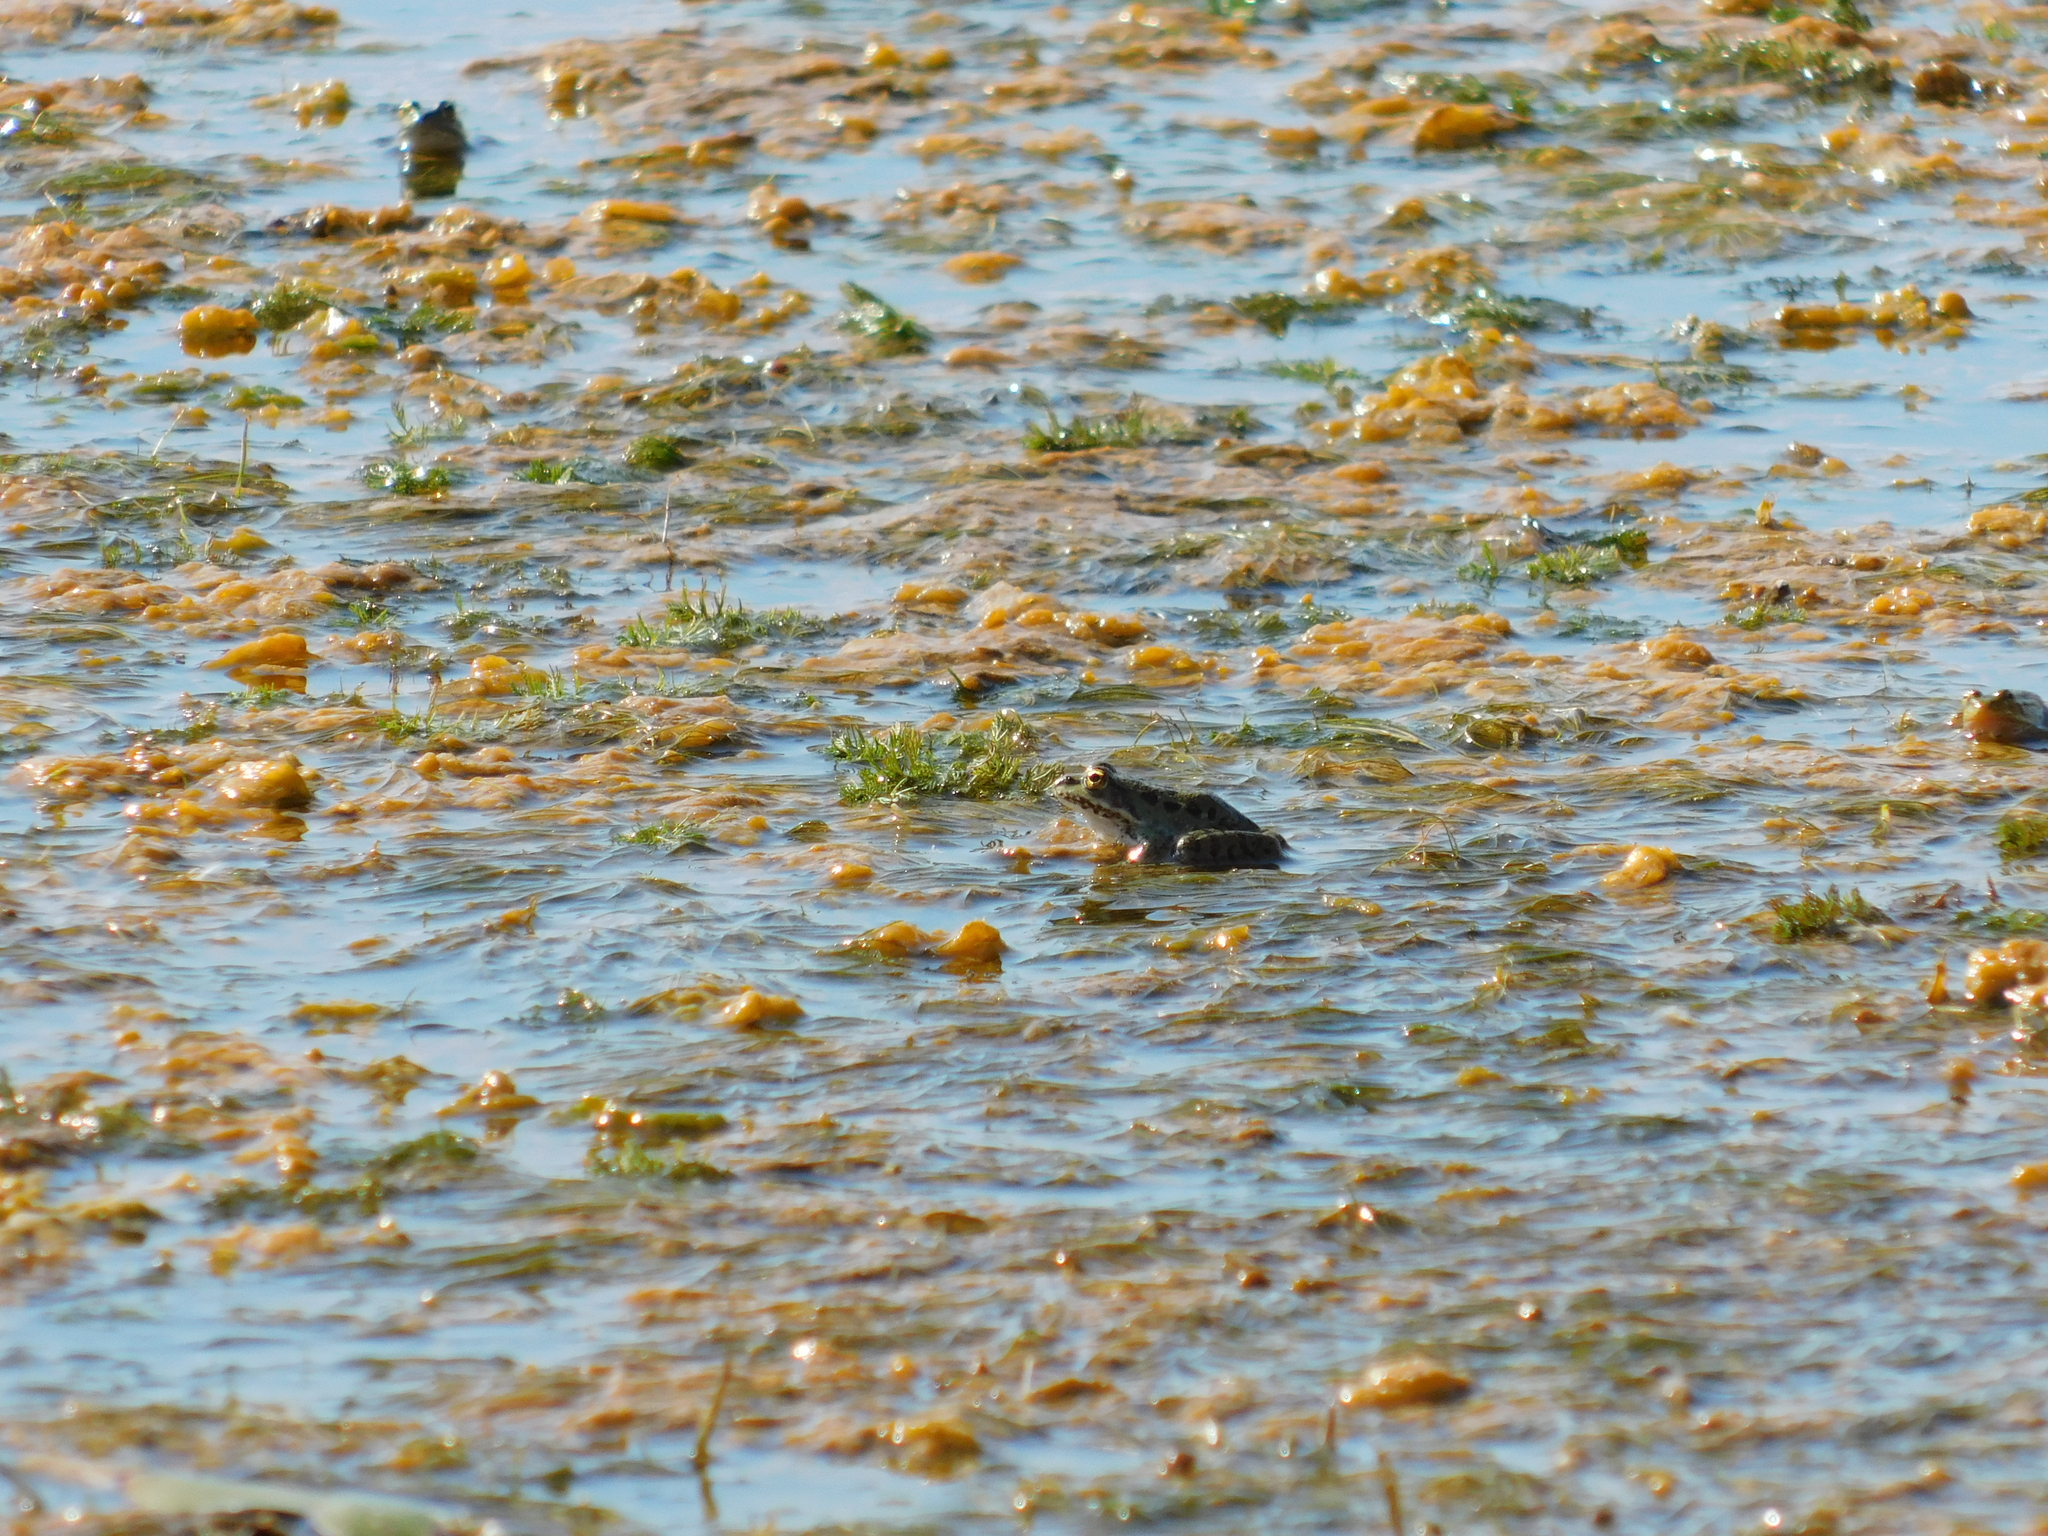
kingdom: Animalia
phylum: Chordata
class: Amphibia
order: Anura
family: Ranidae
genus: Pelophylax
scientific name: Pelophylax ridibundus
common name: Marsh frog
